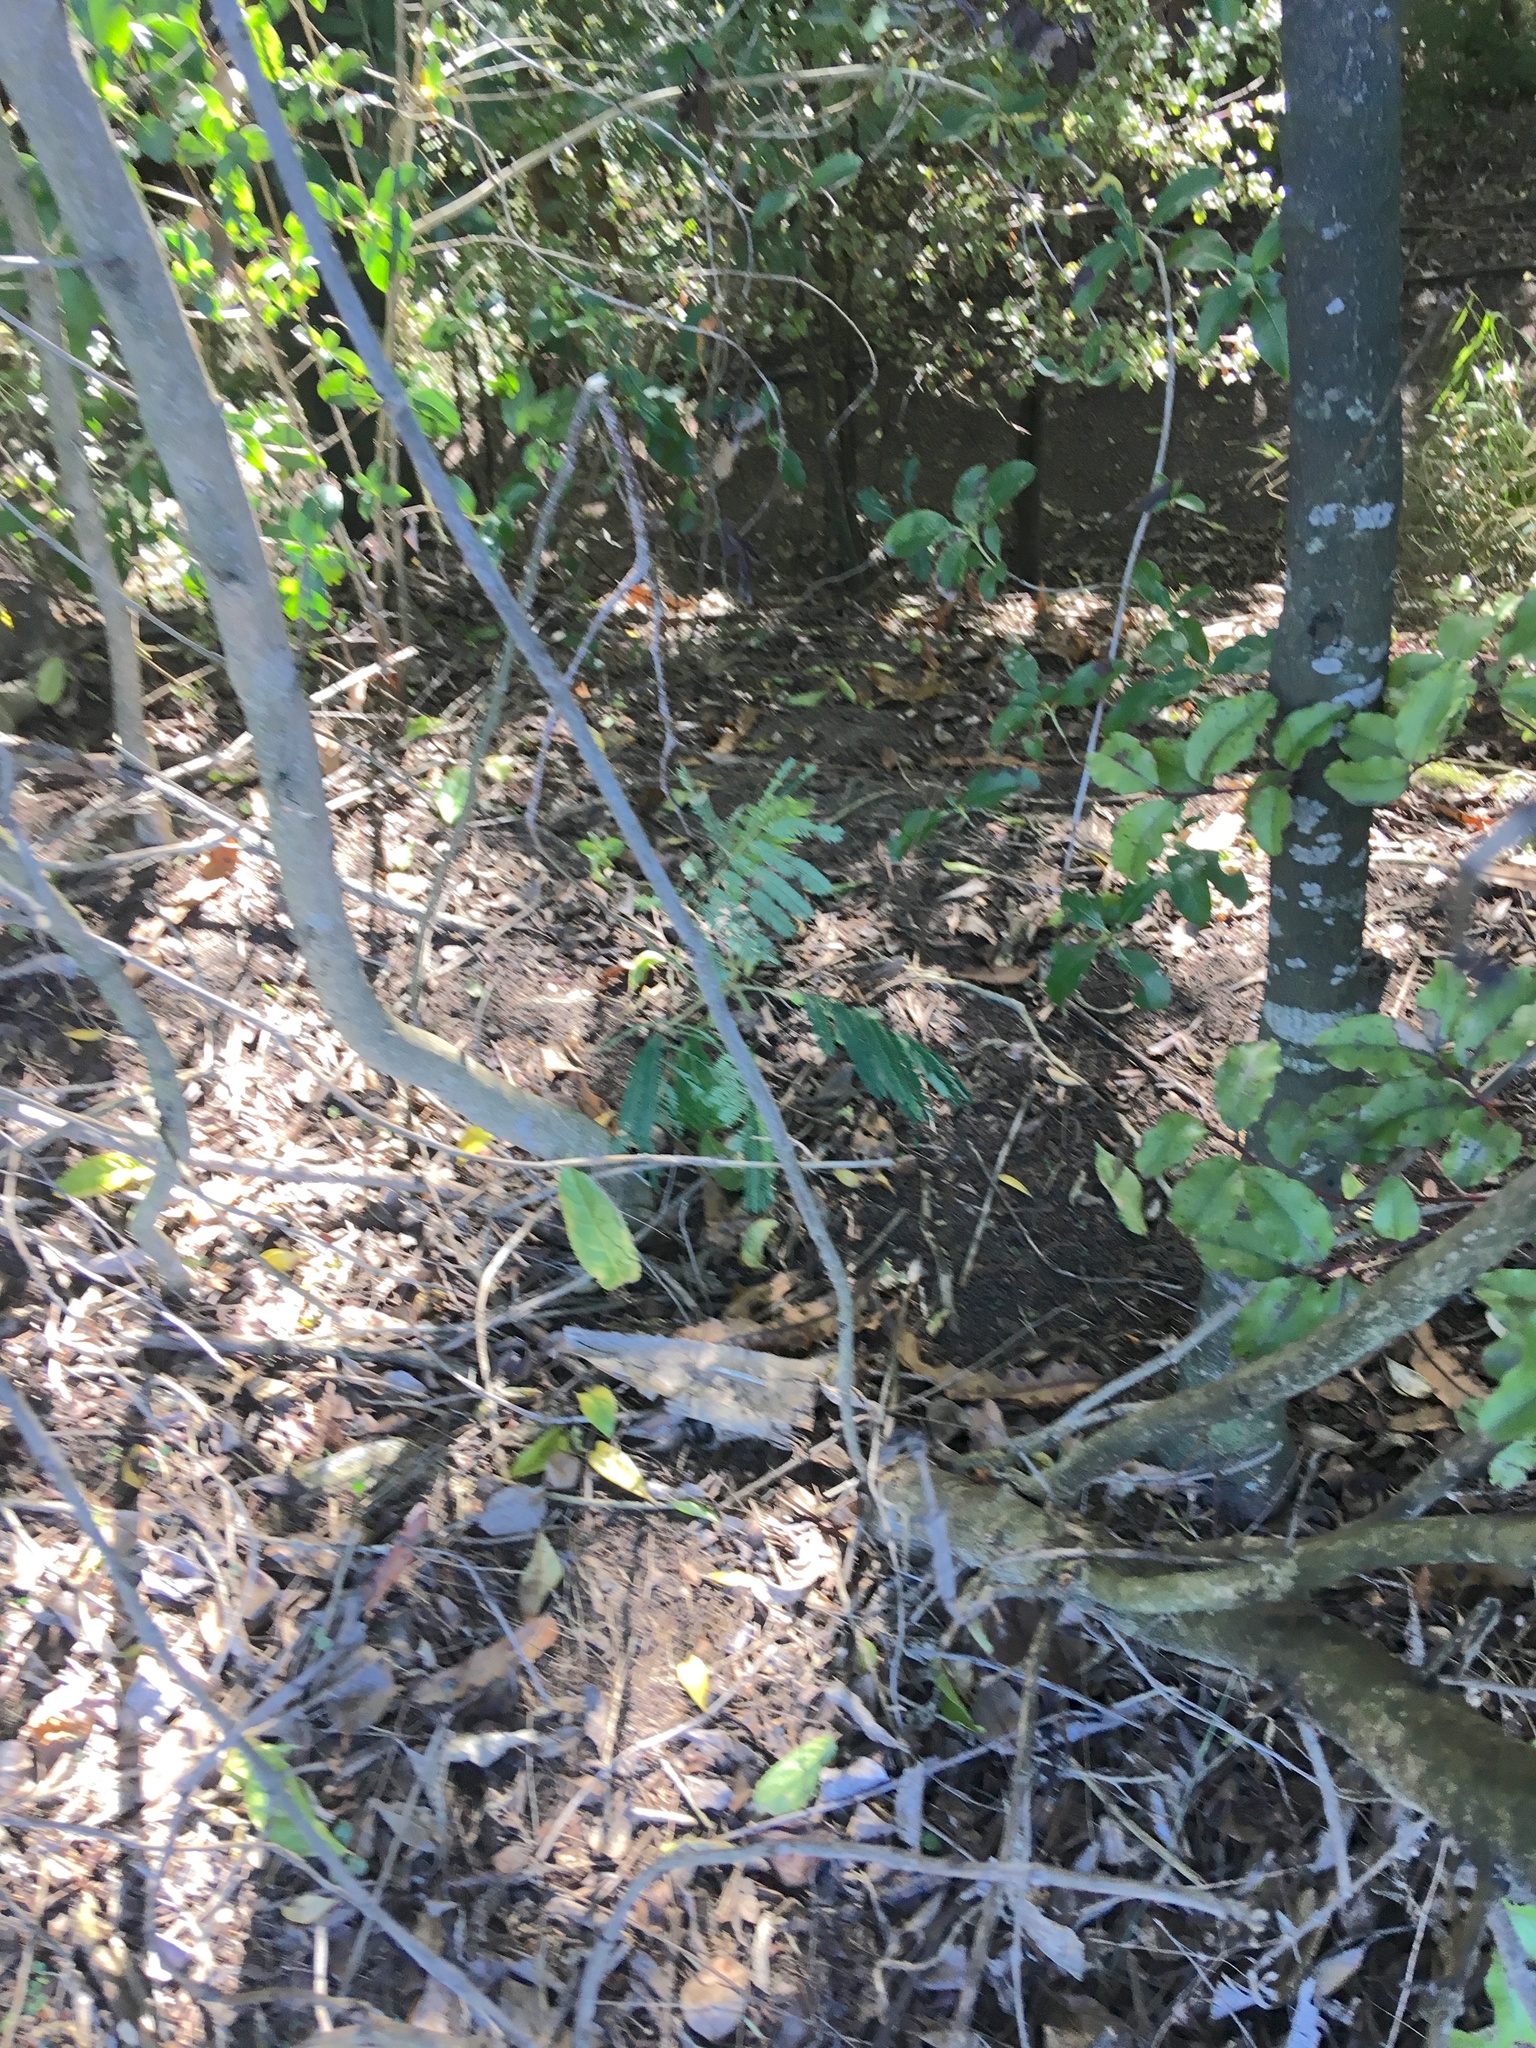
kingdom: Plantae
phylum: Tracheophyta
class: Magnoliopsida
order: Fabales
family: Fabaceae
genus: Paraserianthes
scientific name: Paraserianthes lophantha
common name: Plume albizia
